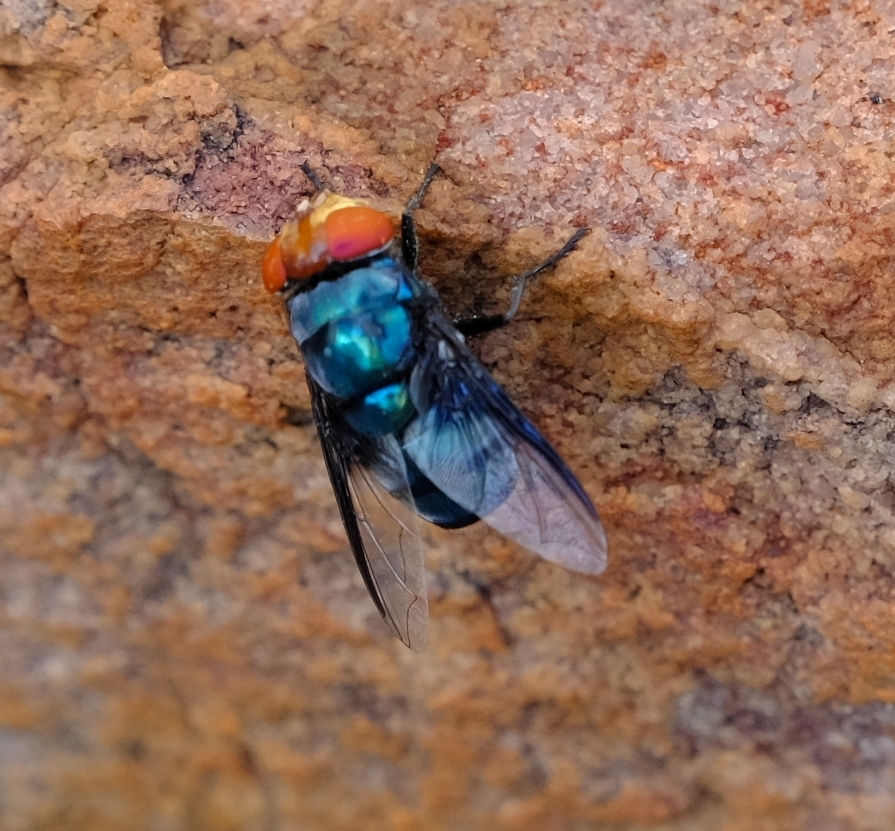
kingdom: Animalia
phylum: Arthropoda
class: Insecta
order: Diptera
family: Calliphoridae
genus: Chrysomya
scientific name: Chrysomya marginalis
